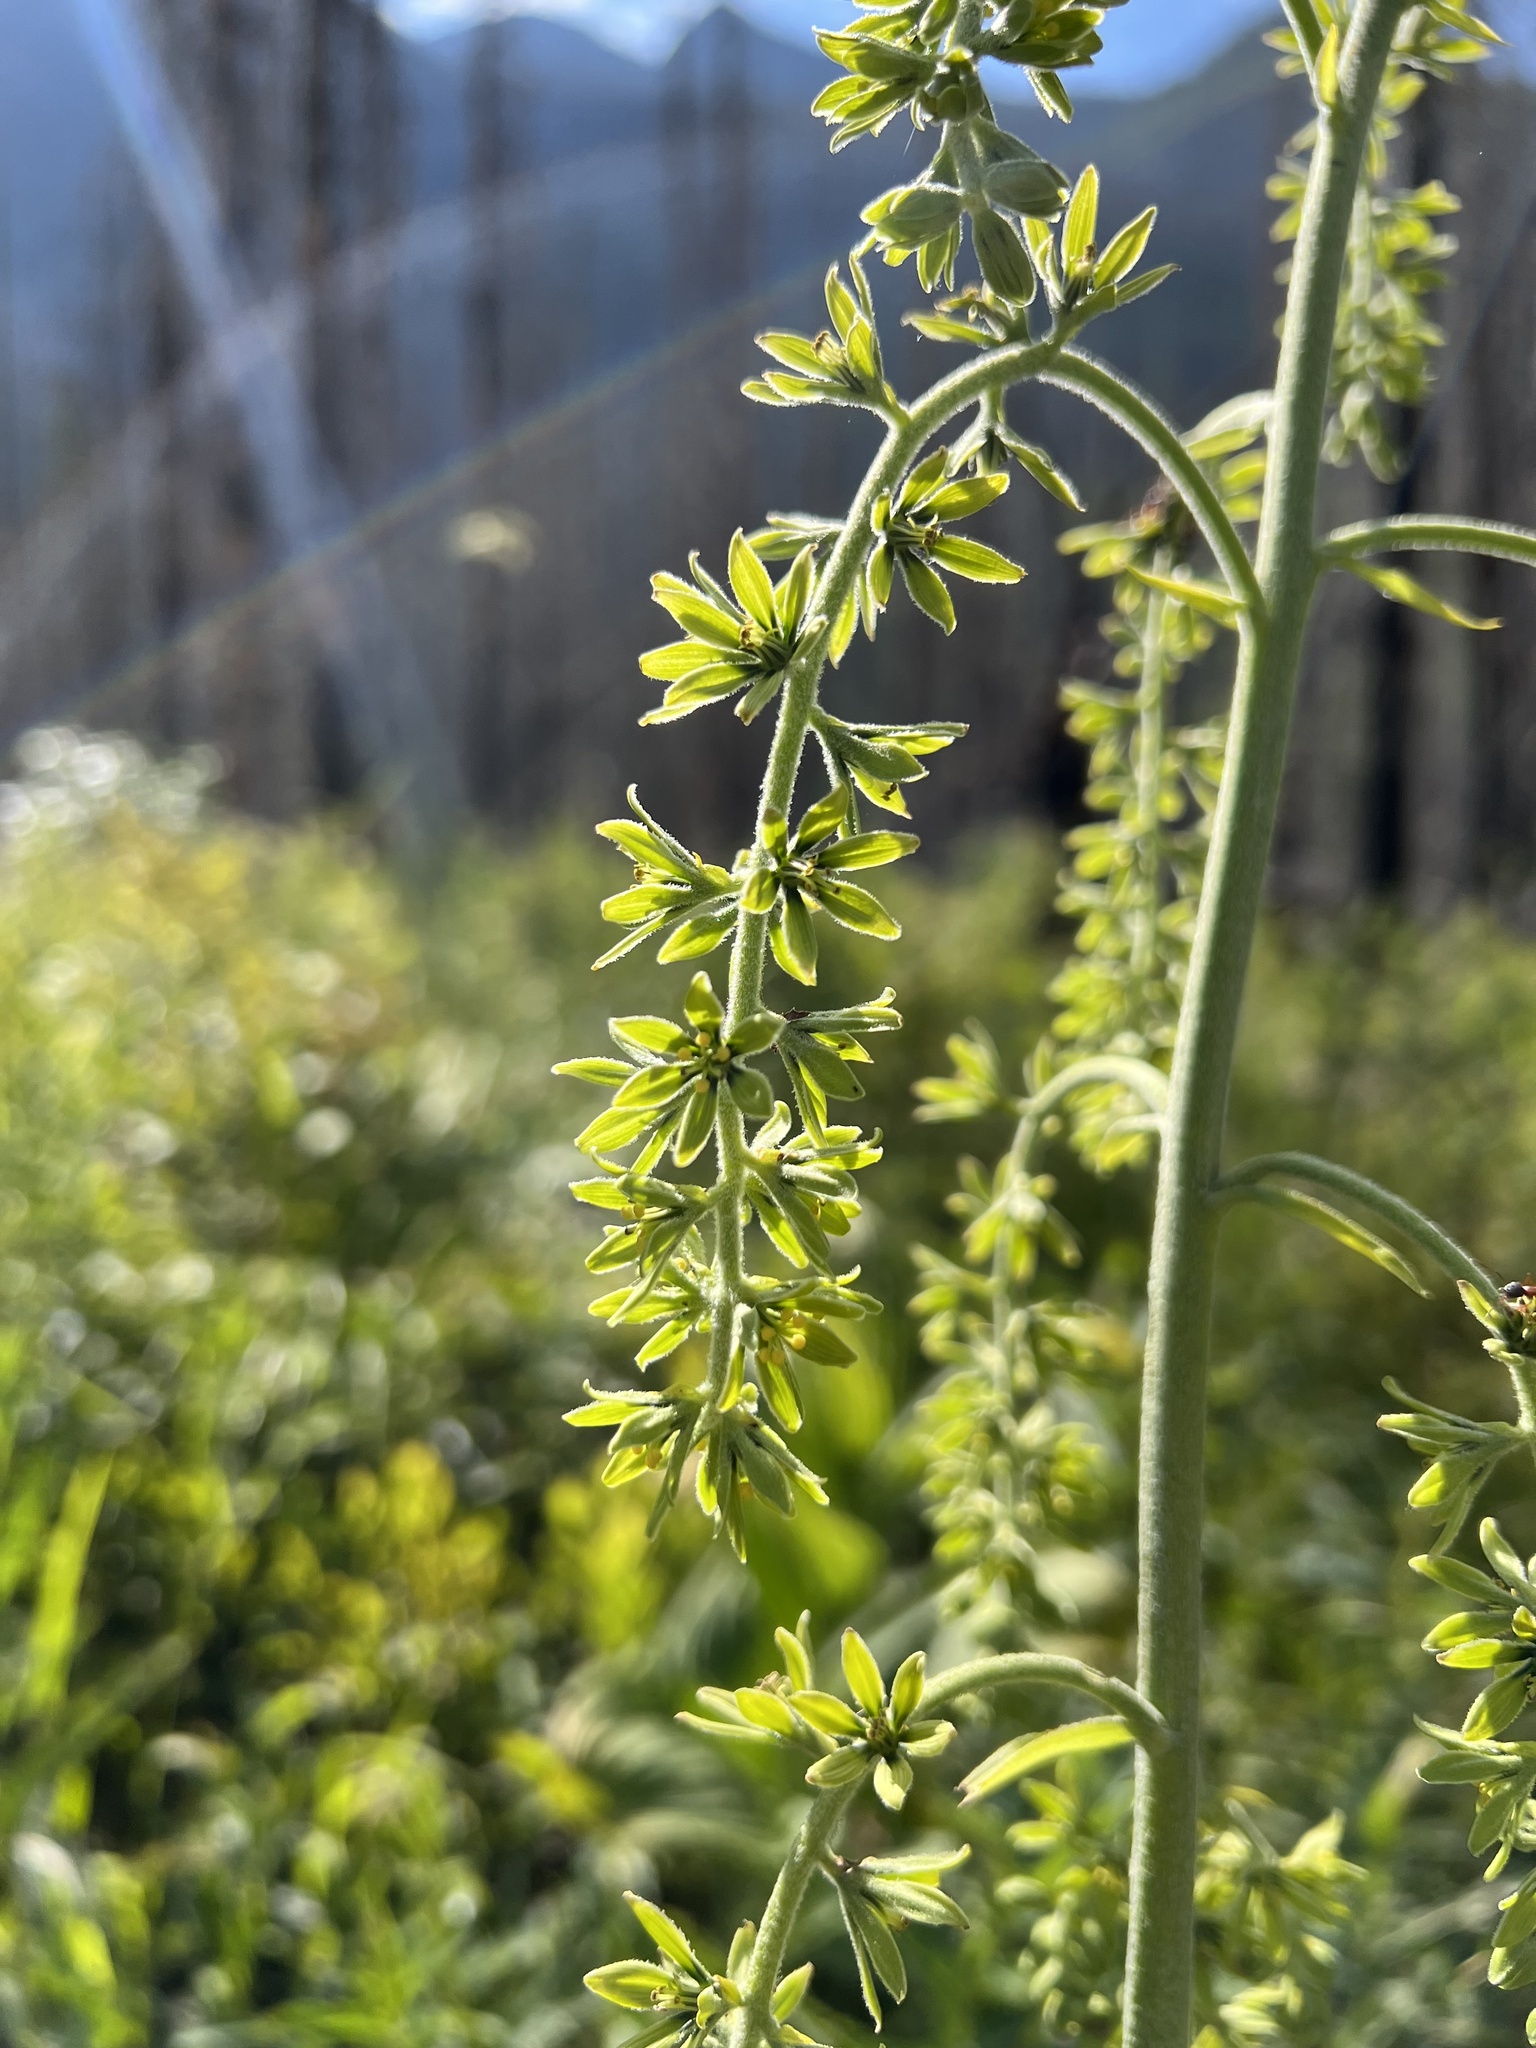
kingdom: Plantae
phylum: Tracheophyta
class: Liliopsida
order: Liliales
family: Melanthiaceae
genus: Veratrum
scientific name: Veratrum viride
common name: American false hellebore
